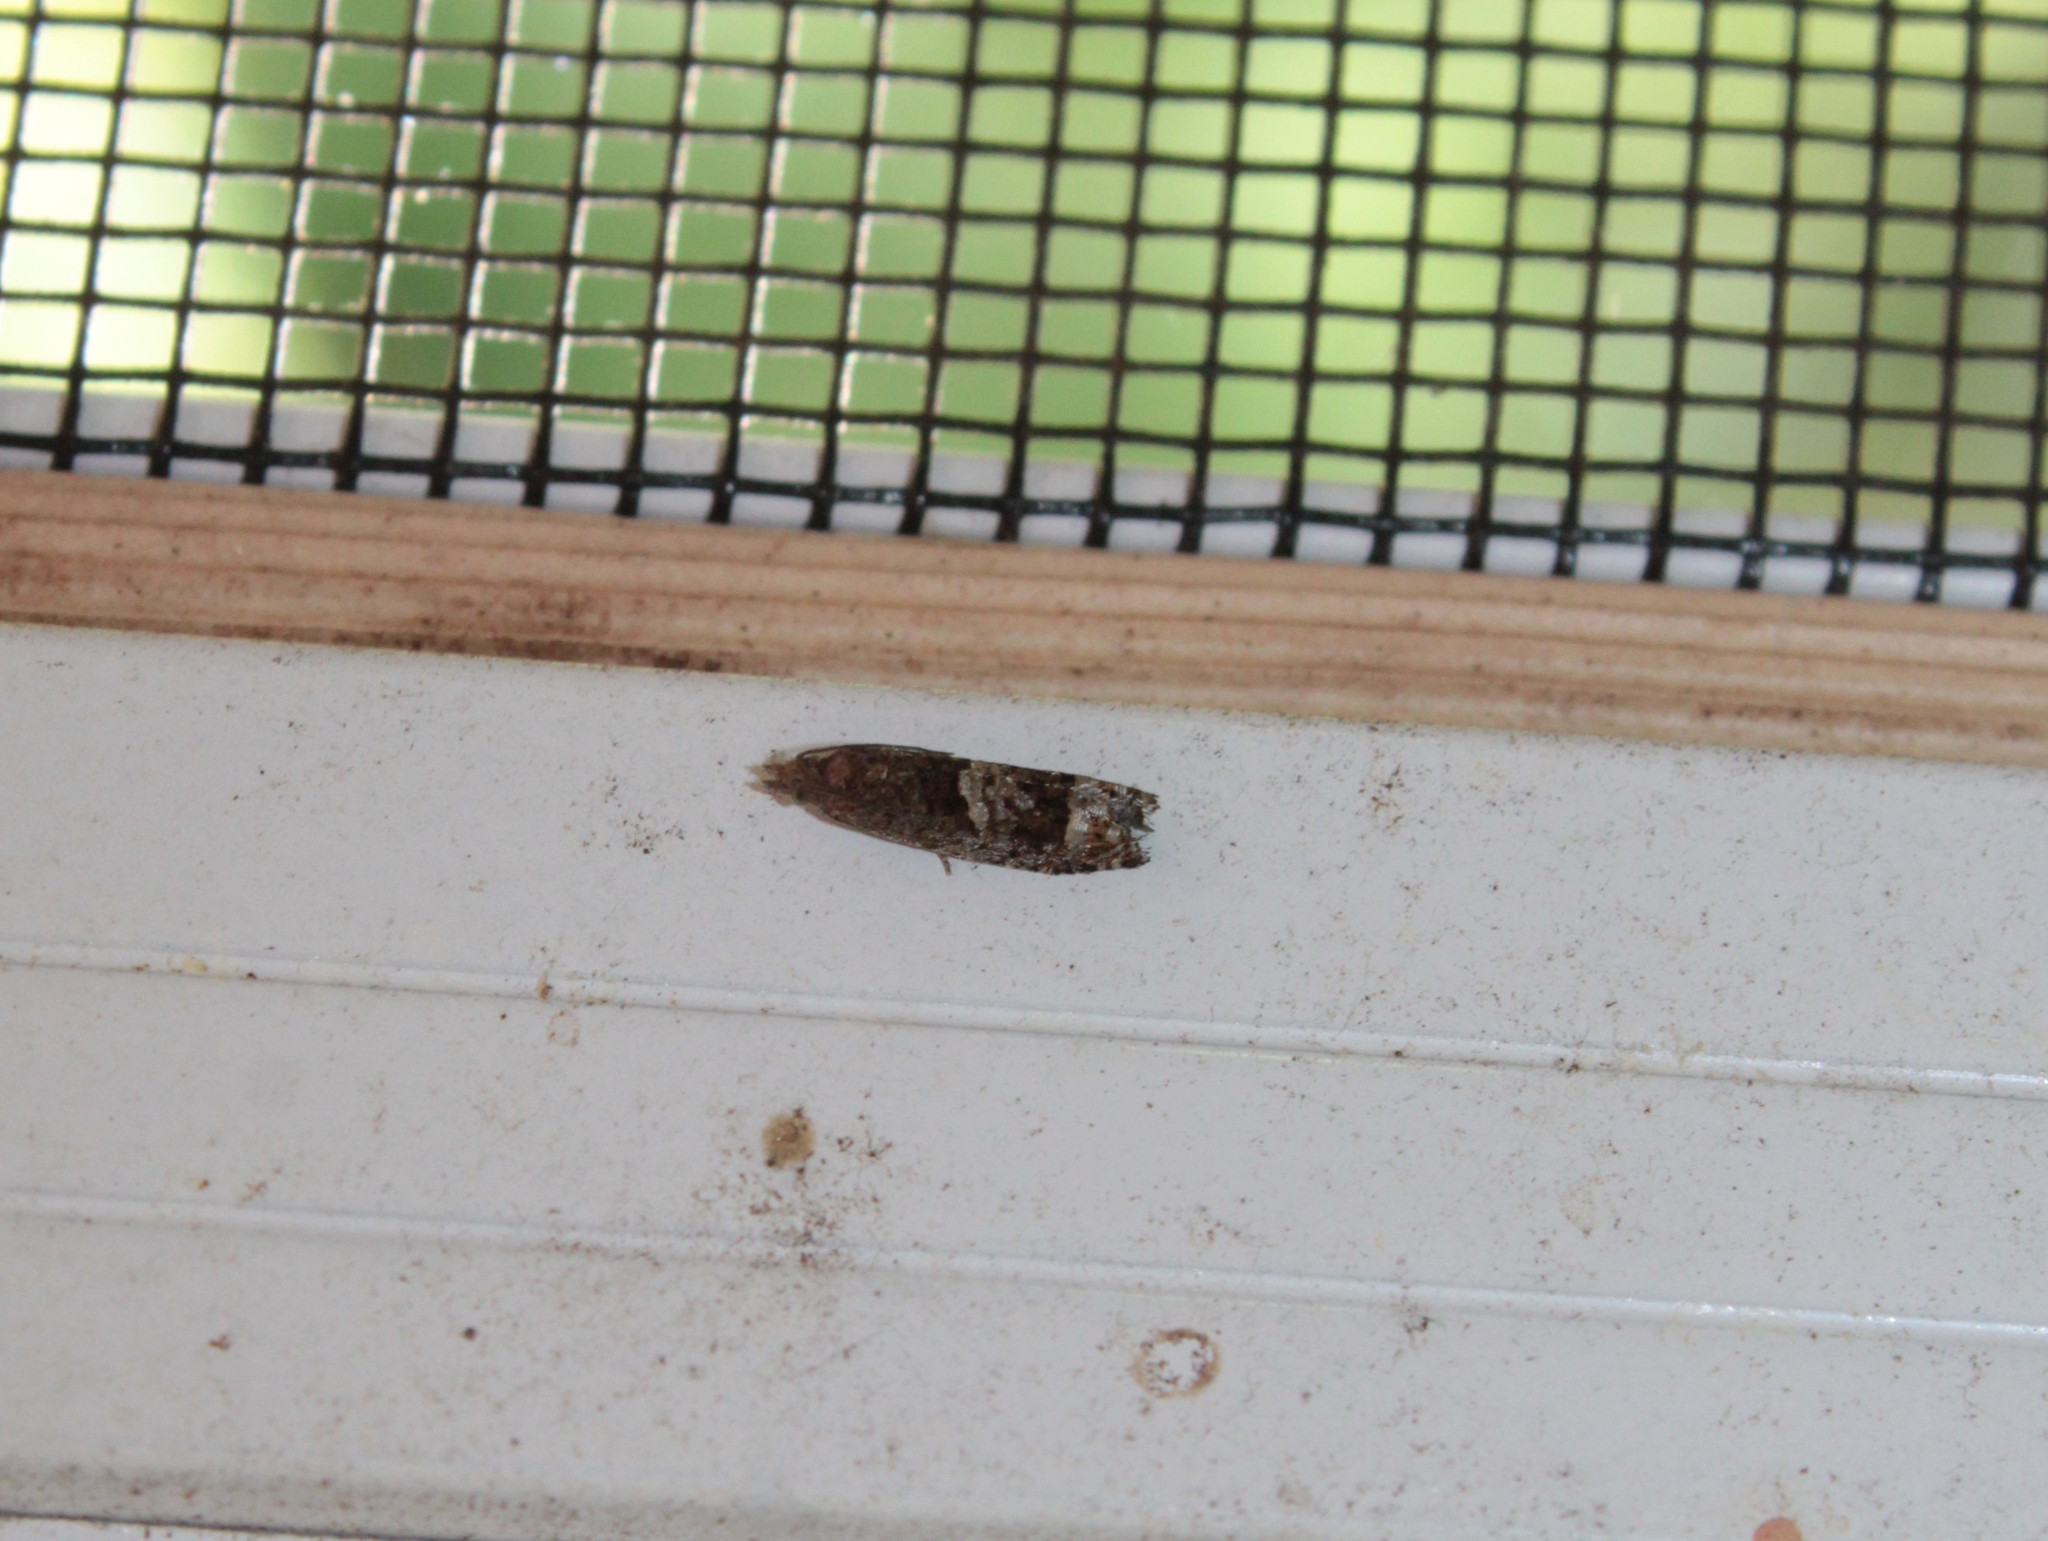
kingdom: Animalia
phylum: Arthropoda
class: Insecta
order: Lepidoptera
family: Tortricidae
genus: Eucosma
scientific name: Eucosma parmatana
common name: Aster eucosma moth
